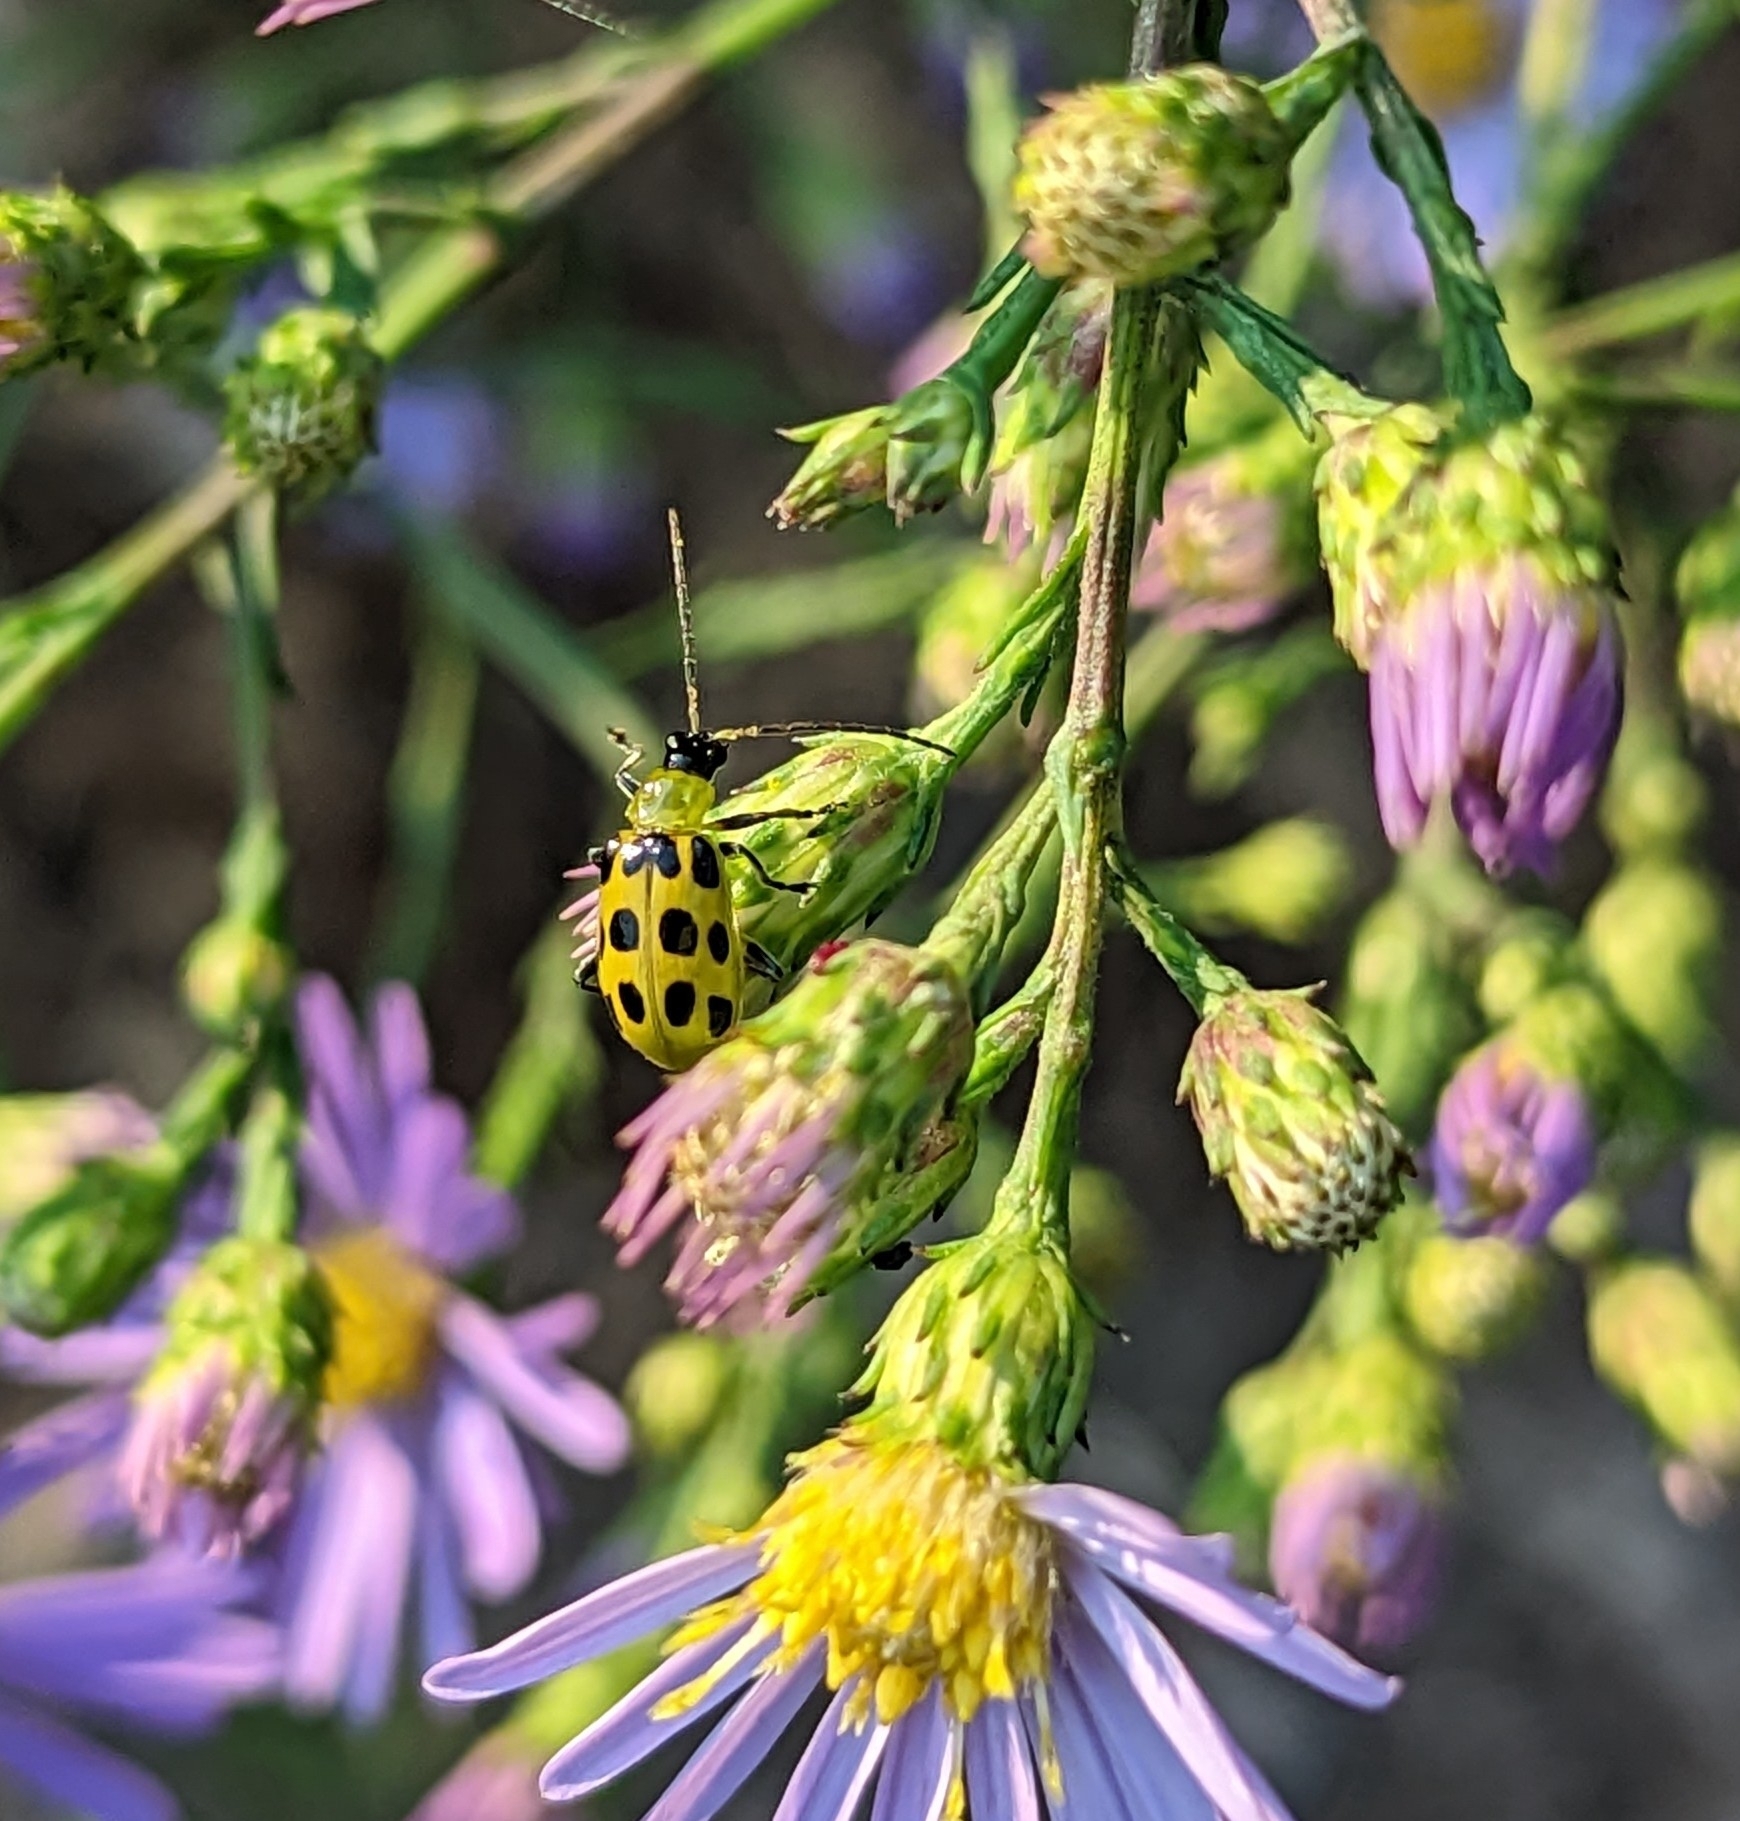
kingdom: Animalia
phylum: Arthropoda
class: Insecta
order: Coleoptera
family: Chrysomelidae
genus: Diabrotica
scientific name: Diabrotica undecimpunctata
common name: Spotted cucumber beetle
